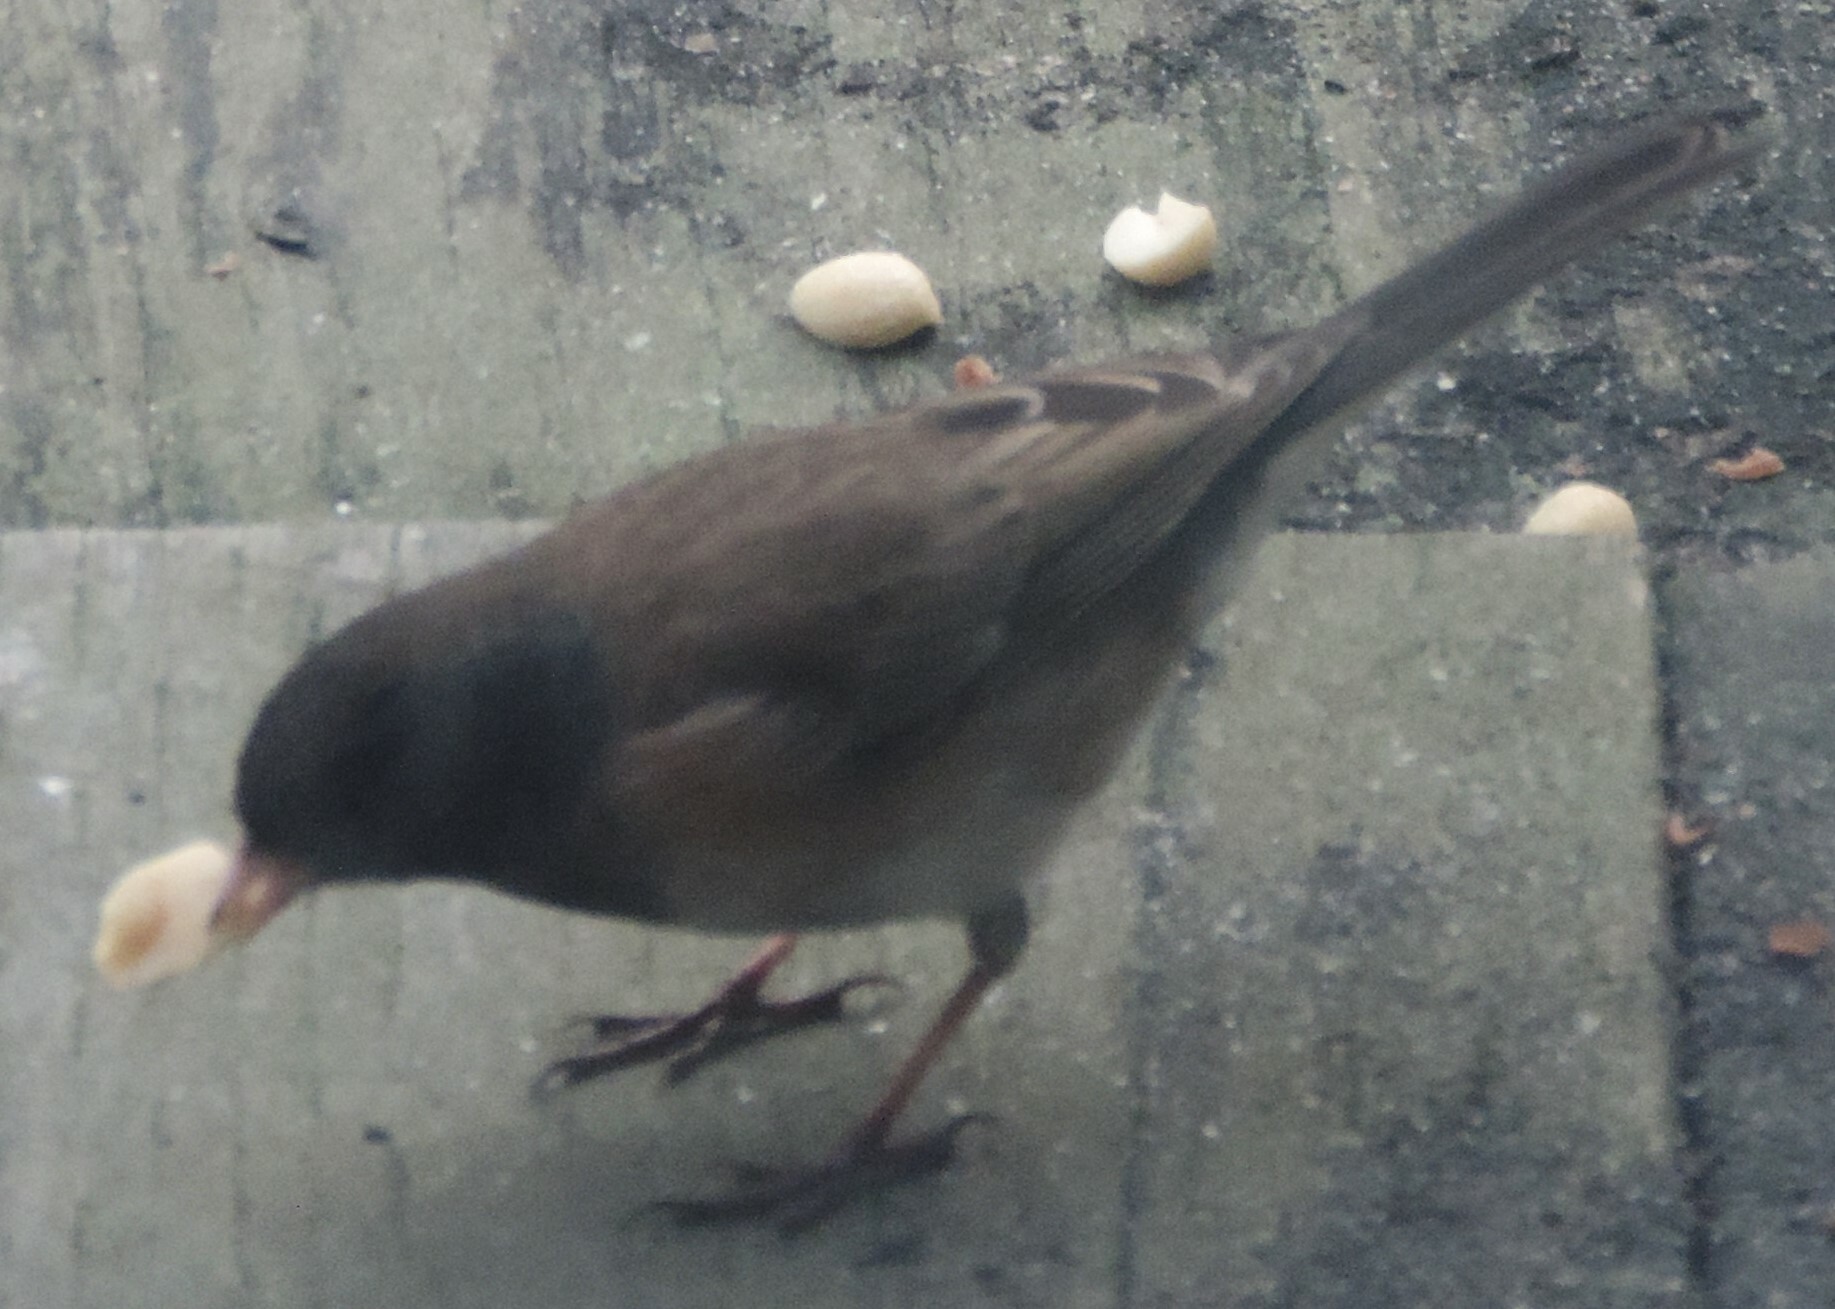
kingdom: Animalia
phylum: Chordata
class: Aves
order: Passeriformes
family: Passerellidae
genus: Junco
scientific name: Junco hyemalis
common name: Dark-eyed junco
